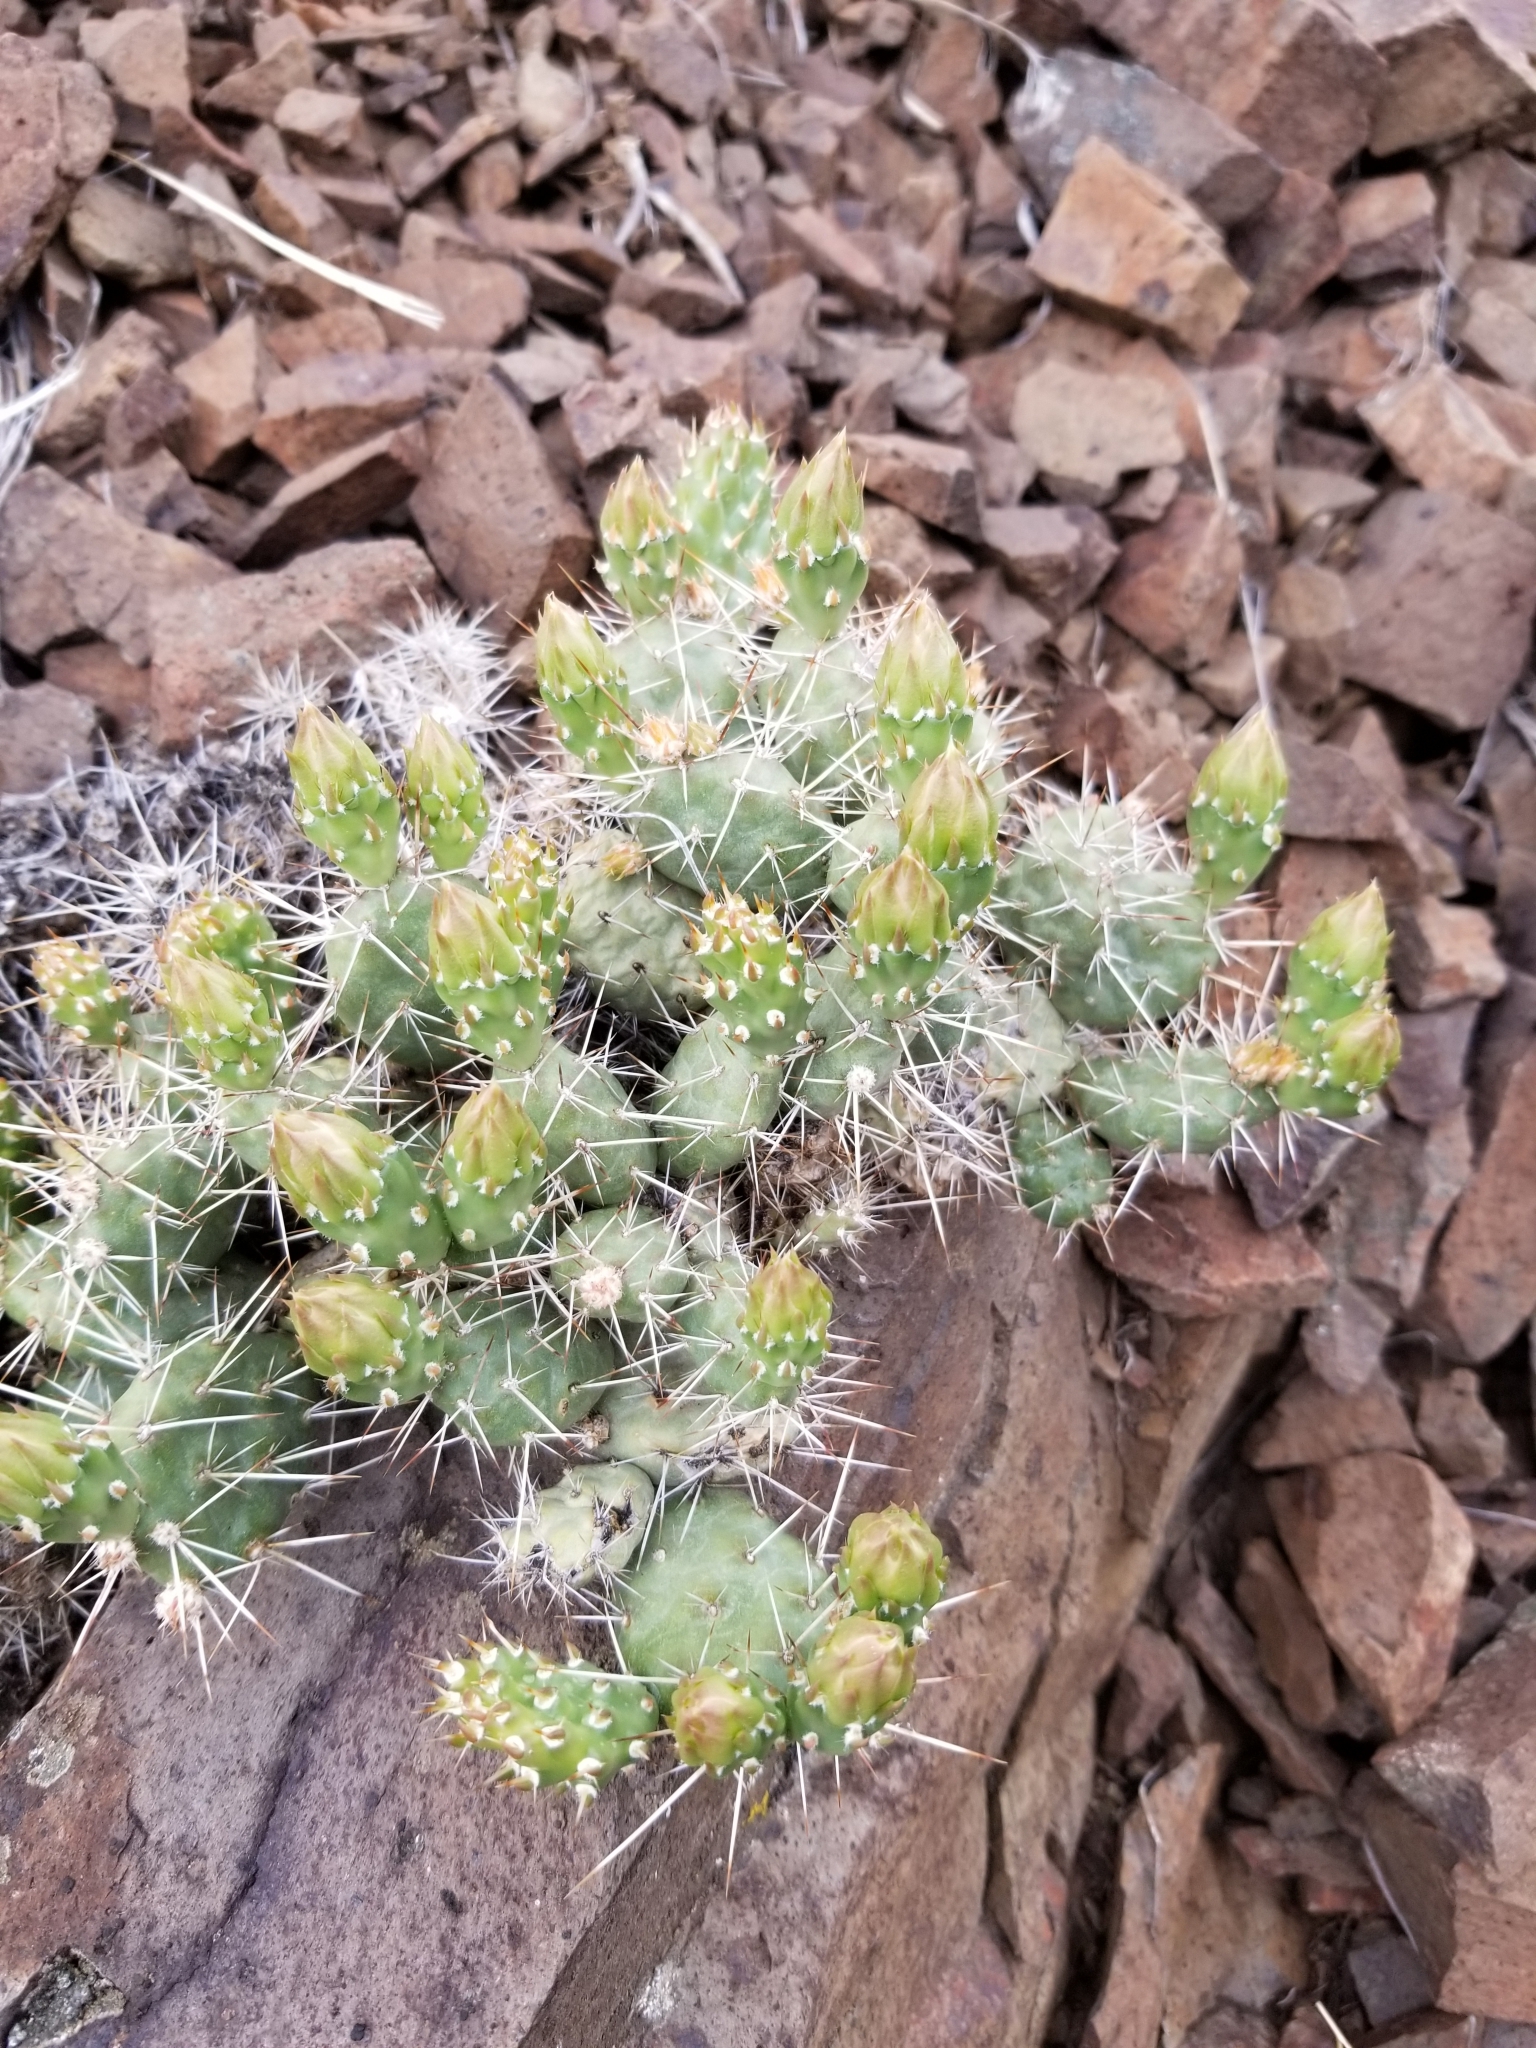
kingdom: Plantae
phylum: Tracheophyta
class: Magnoliopsida
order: Caryophyllales
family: Cactaceae
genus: Opuntia
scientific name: Opuntia fragilis
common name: Brittle cactus
